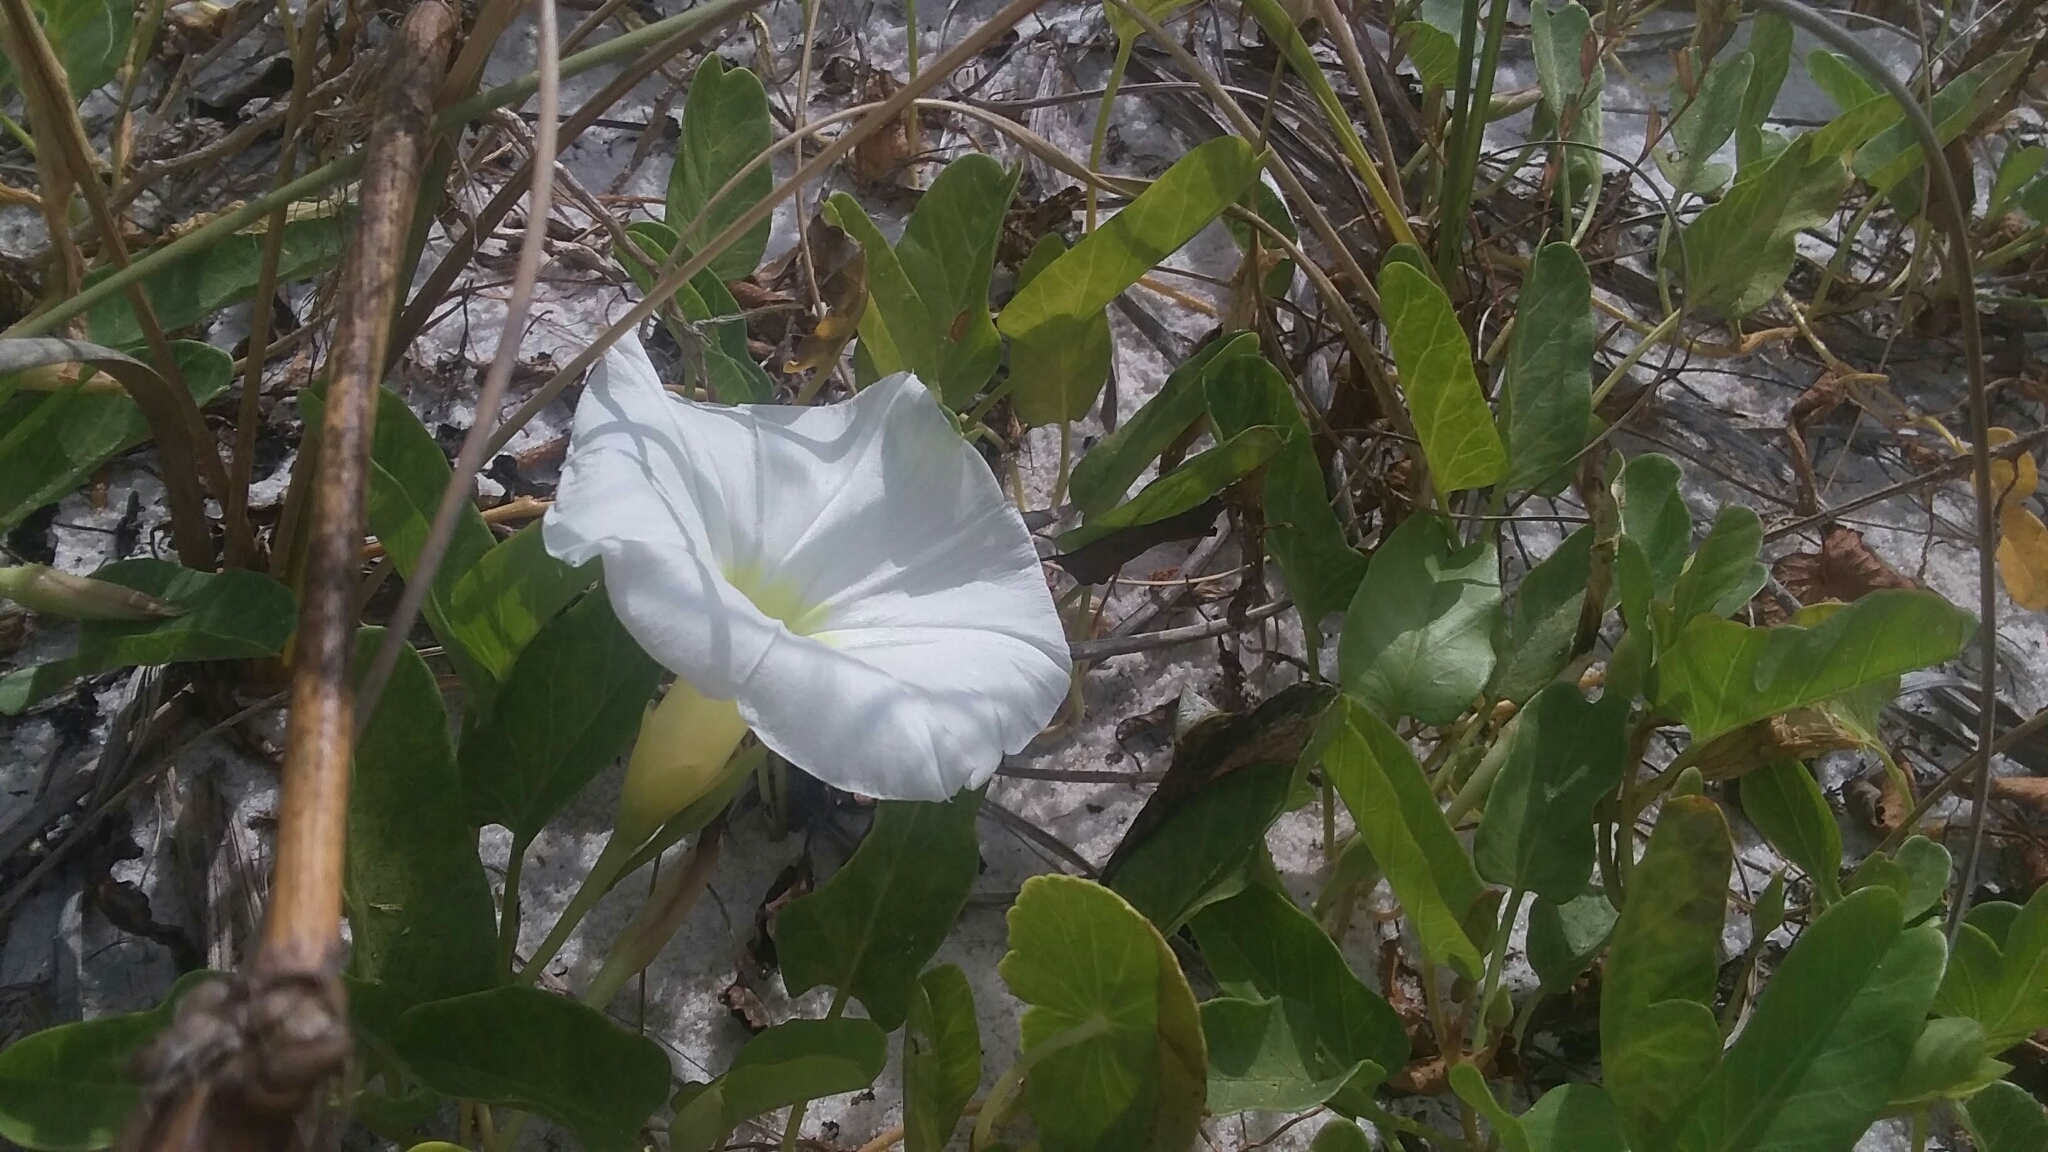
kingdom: Plantae
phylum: Tracheophyta
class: Magnoliopsida
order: Solanales
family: Convolvulaceae
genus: Ipomoea
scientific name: Ipomoea imperati
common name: Fiddle-leaf morning-glory
